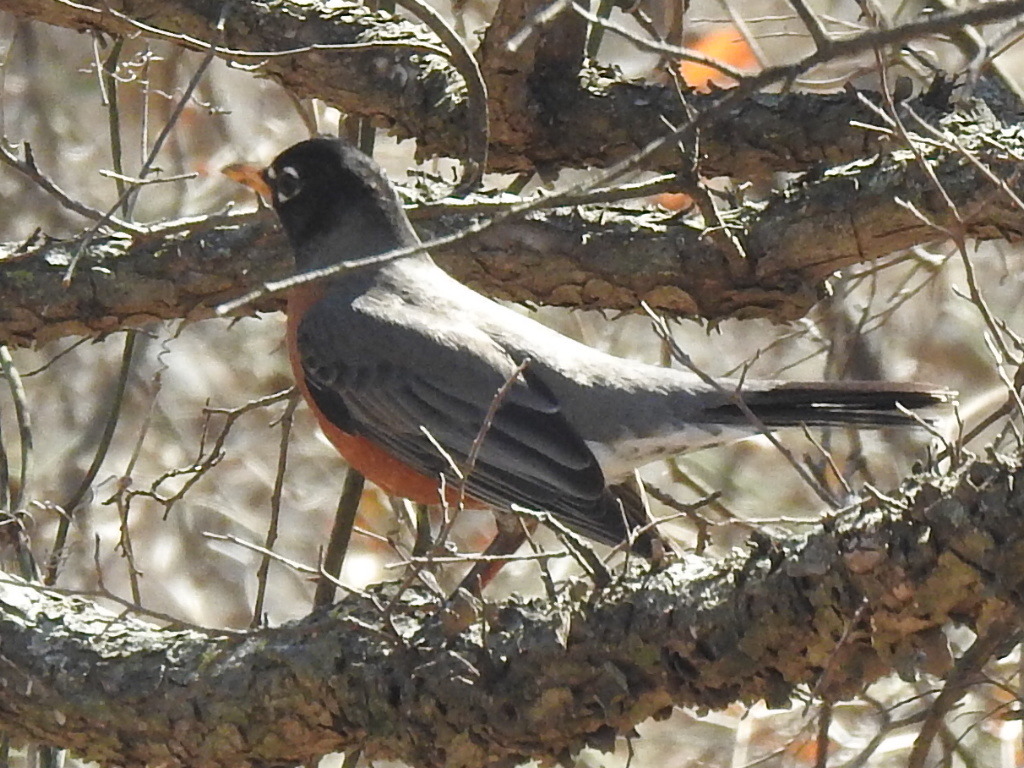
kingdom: Animalia
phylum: Chordata
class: Aves
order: Passeriformes
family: Turdidae
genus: Turdus
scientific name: Turdus migratorius
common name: American robin
